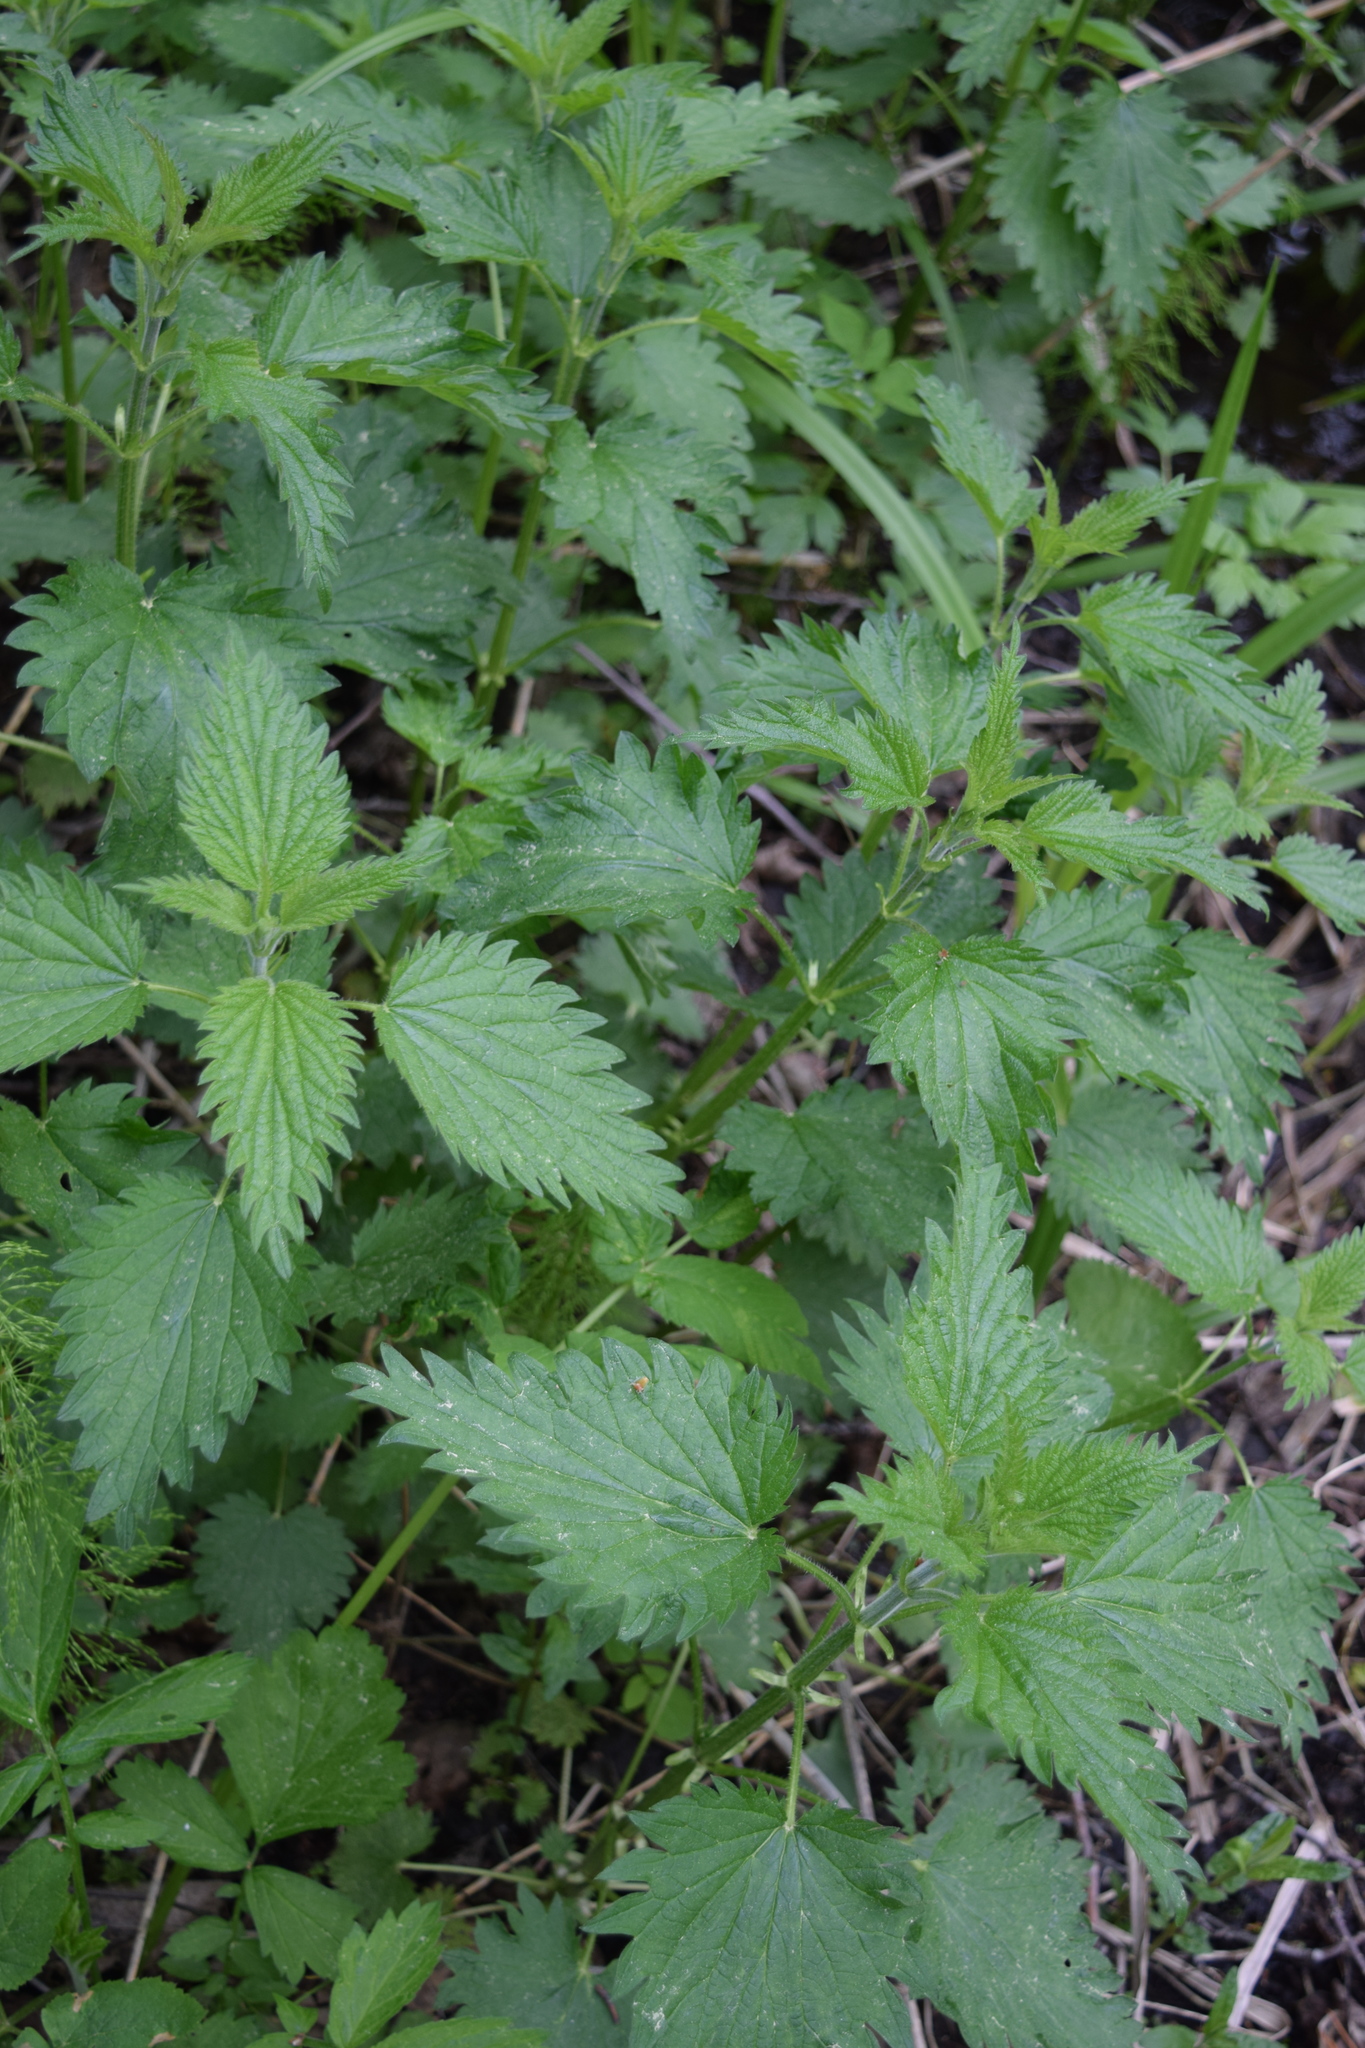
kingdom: Plantae
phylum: Tracheophyta
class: Magnoliopsida
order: Rosales
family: Urticaceae
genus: Urtica
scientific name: Urtica dioica
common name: Common nettle
